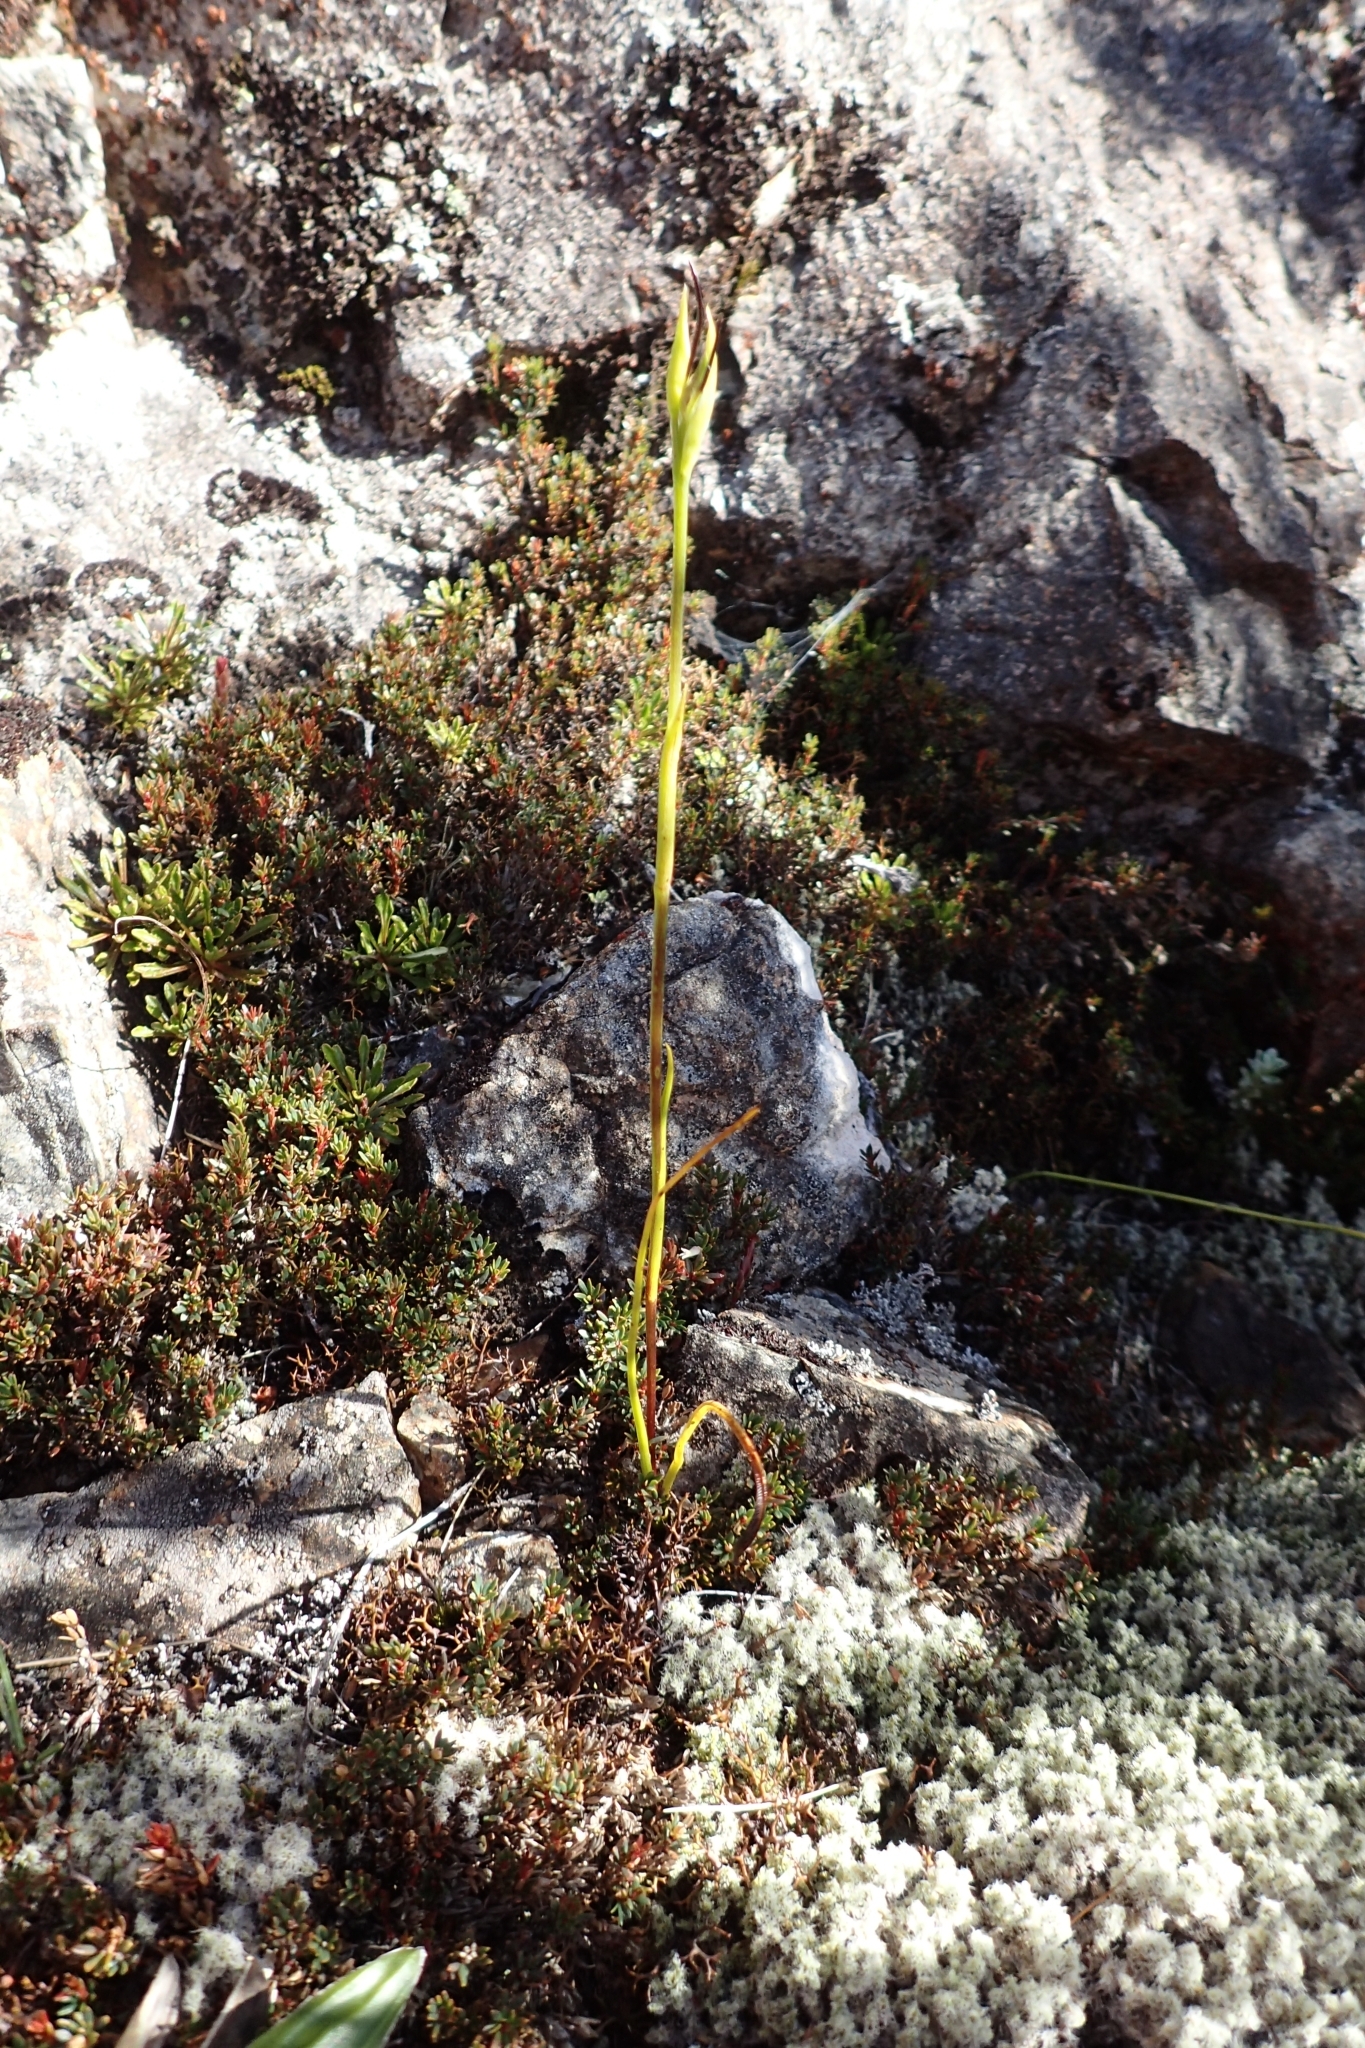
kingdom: Plantae
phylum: Tracheophyta
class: Liliopsida
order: Asparagales
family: Orchidaceae
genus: Orthoceras
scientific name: Orthoceras novae-zeelandiae
